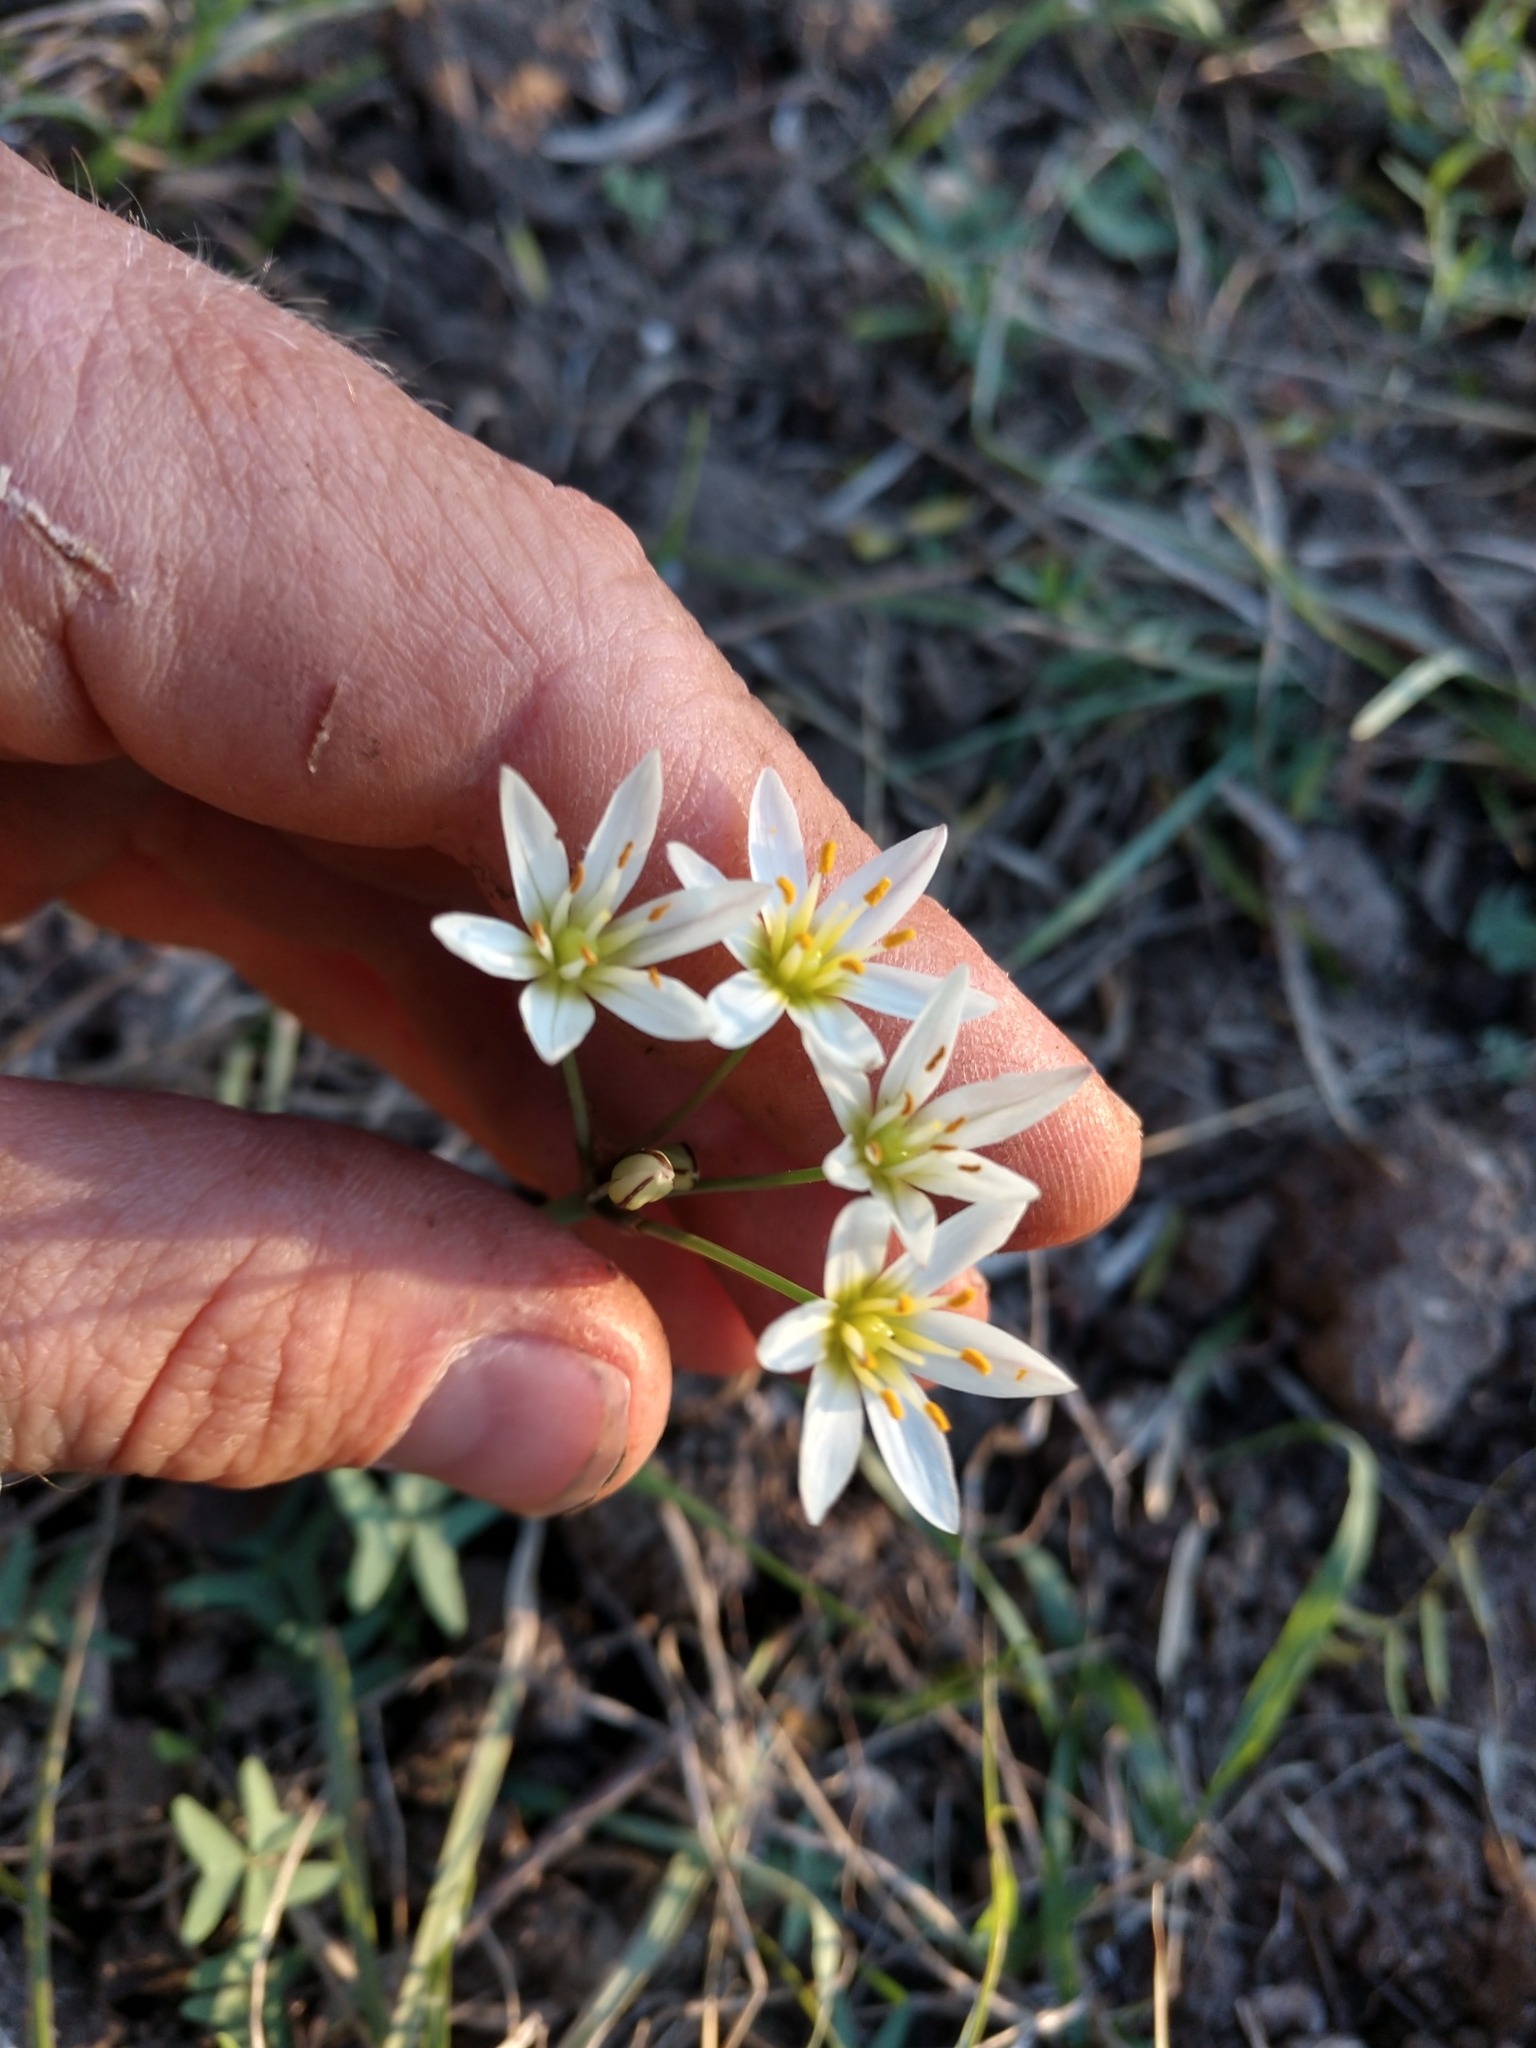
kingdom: Plantae
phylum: Tracheophyta
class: Liliopsida
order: Asparagales
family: Amaryllidaceae
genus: Nothoscordum
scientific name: Nothoscordum bivalve
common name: Crow-poison
